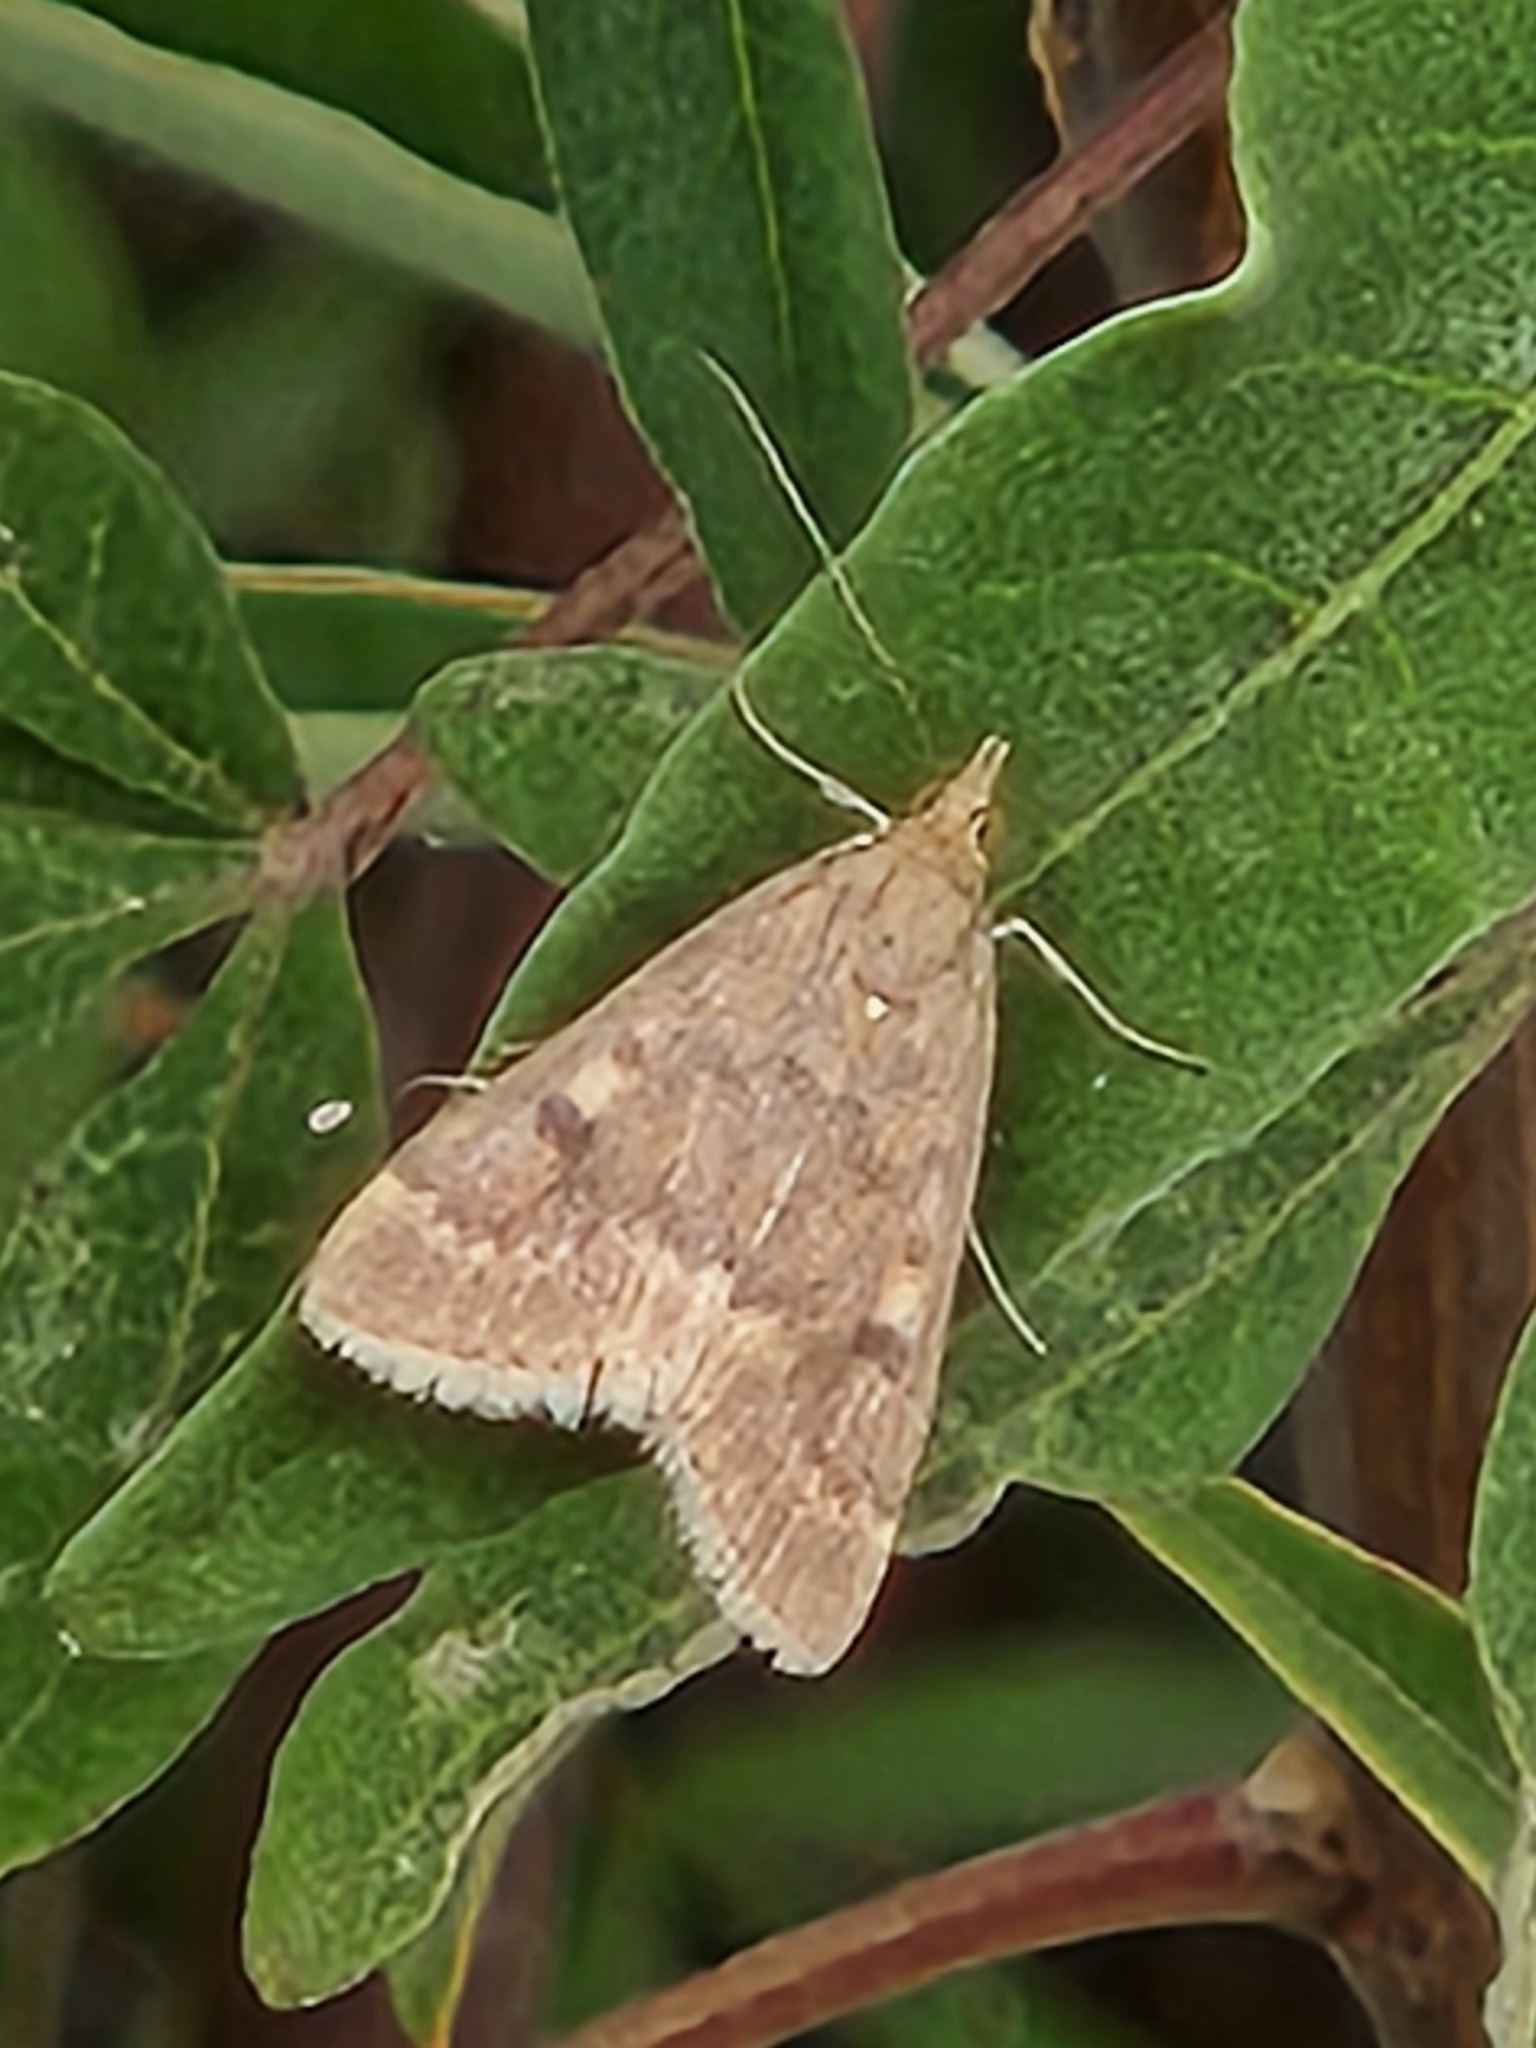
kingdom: Animalia
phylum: Arthropoda
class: Insecta
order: Lepidoptera
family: Crambidae
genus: Achyra
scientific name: Achyra rantalis
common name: Garden webworm
